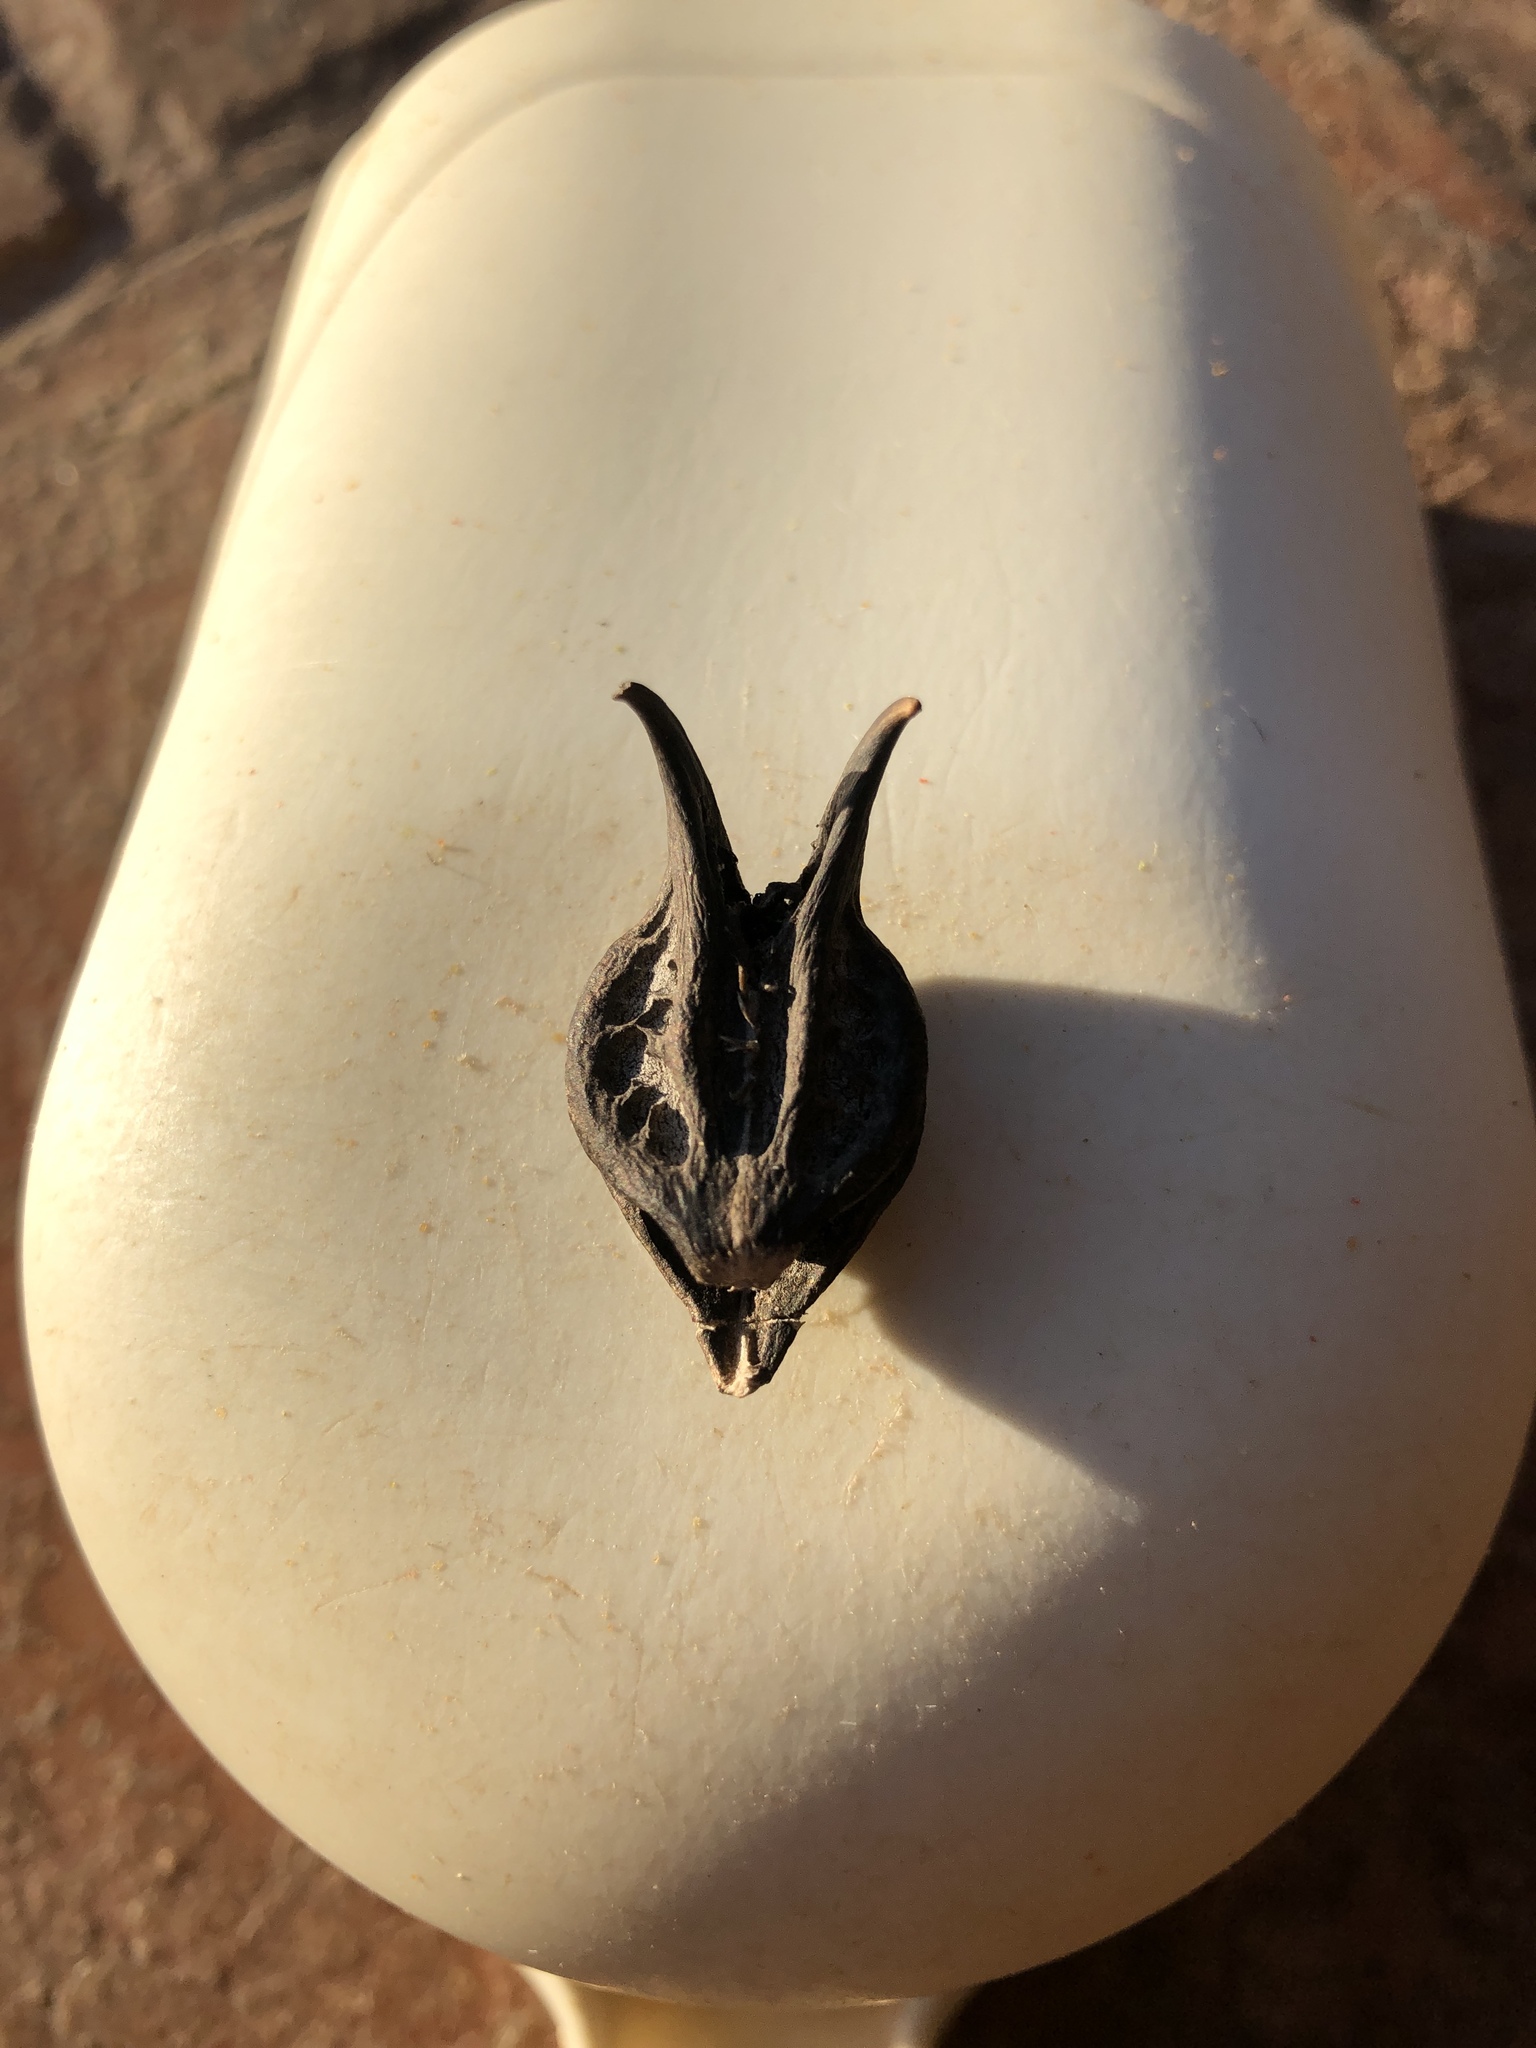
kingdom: Plantae
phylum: Tracheophyta
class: Magnoliopsida
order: Lamiales
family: Martyniaceae
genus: Martynia
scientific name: Martynia annua
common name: Tiger's-claw
